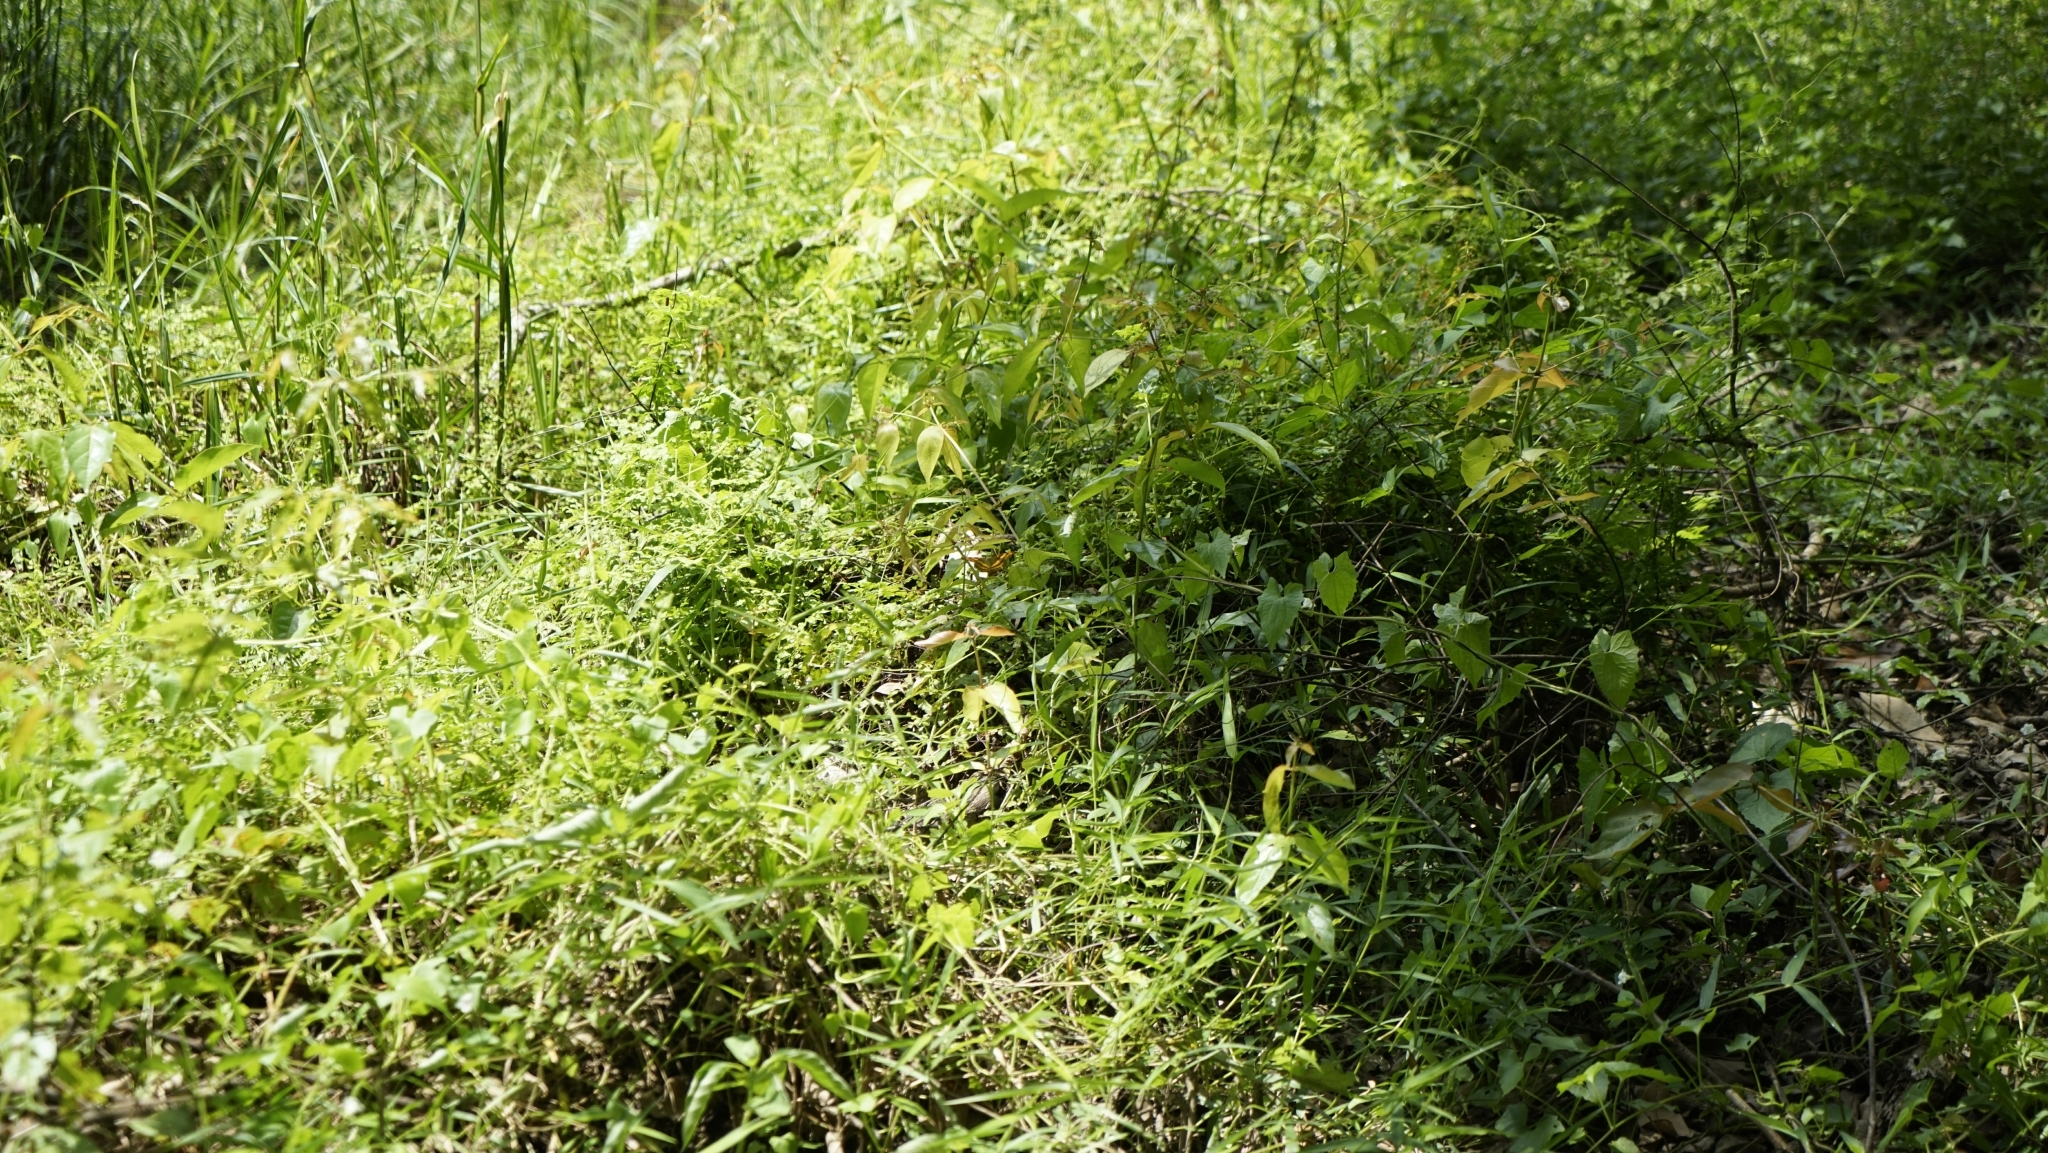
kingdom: Animalia
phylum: Arthropoda
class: Insecta
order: Lepidoptera
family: Nymphalidae
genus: Junonia
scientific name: Junonia iphita
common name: Chocolate pansy
